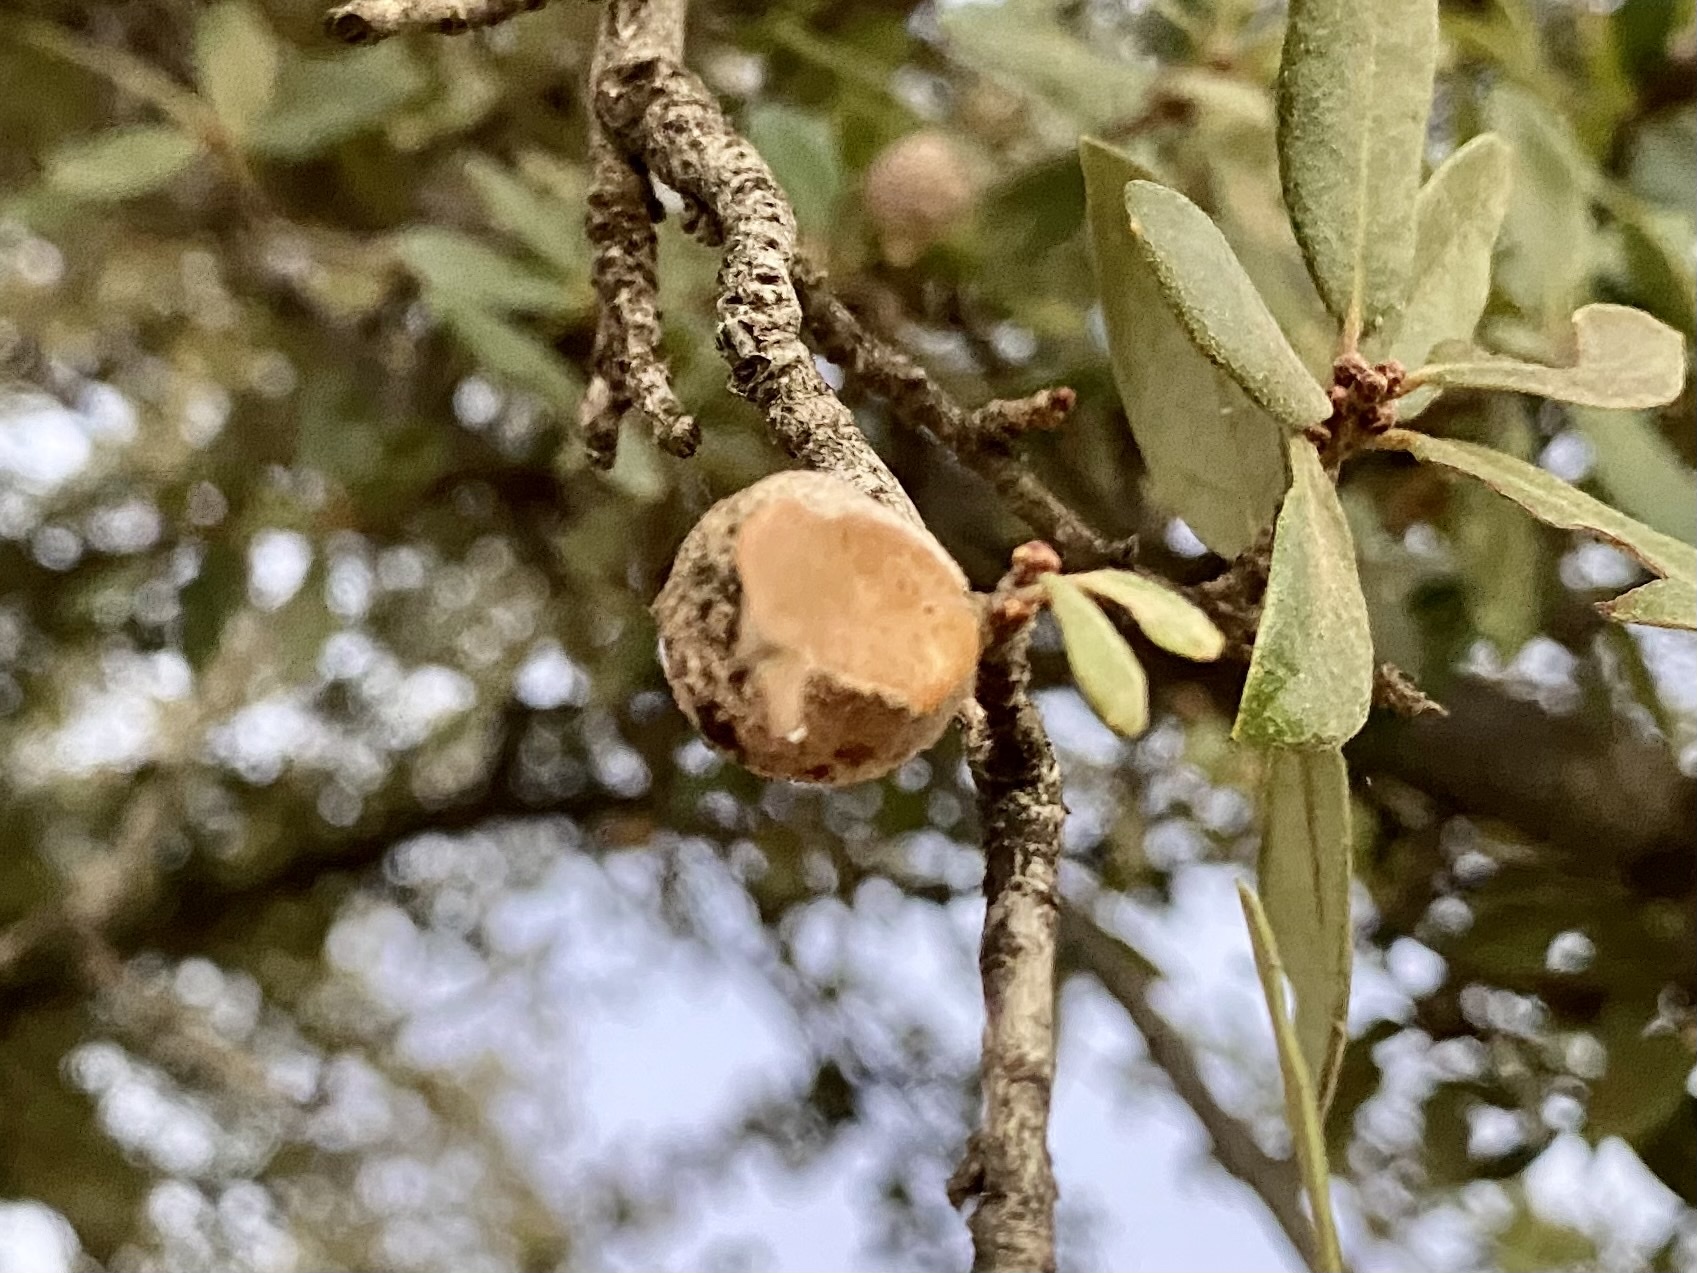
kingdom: Animalia
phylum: Arthropoda
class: Insecta
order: Hymenoptera
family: Cynipidae
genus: Disholcaspis
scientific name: Disholcaspis
